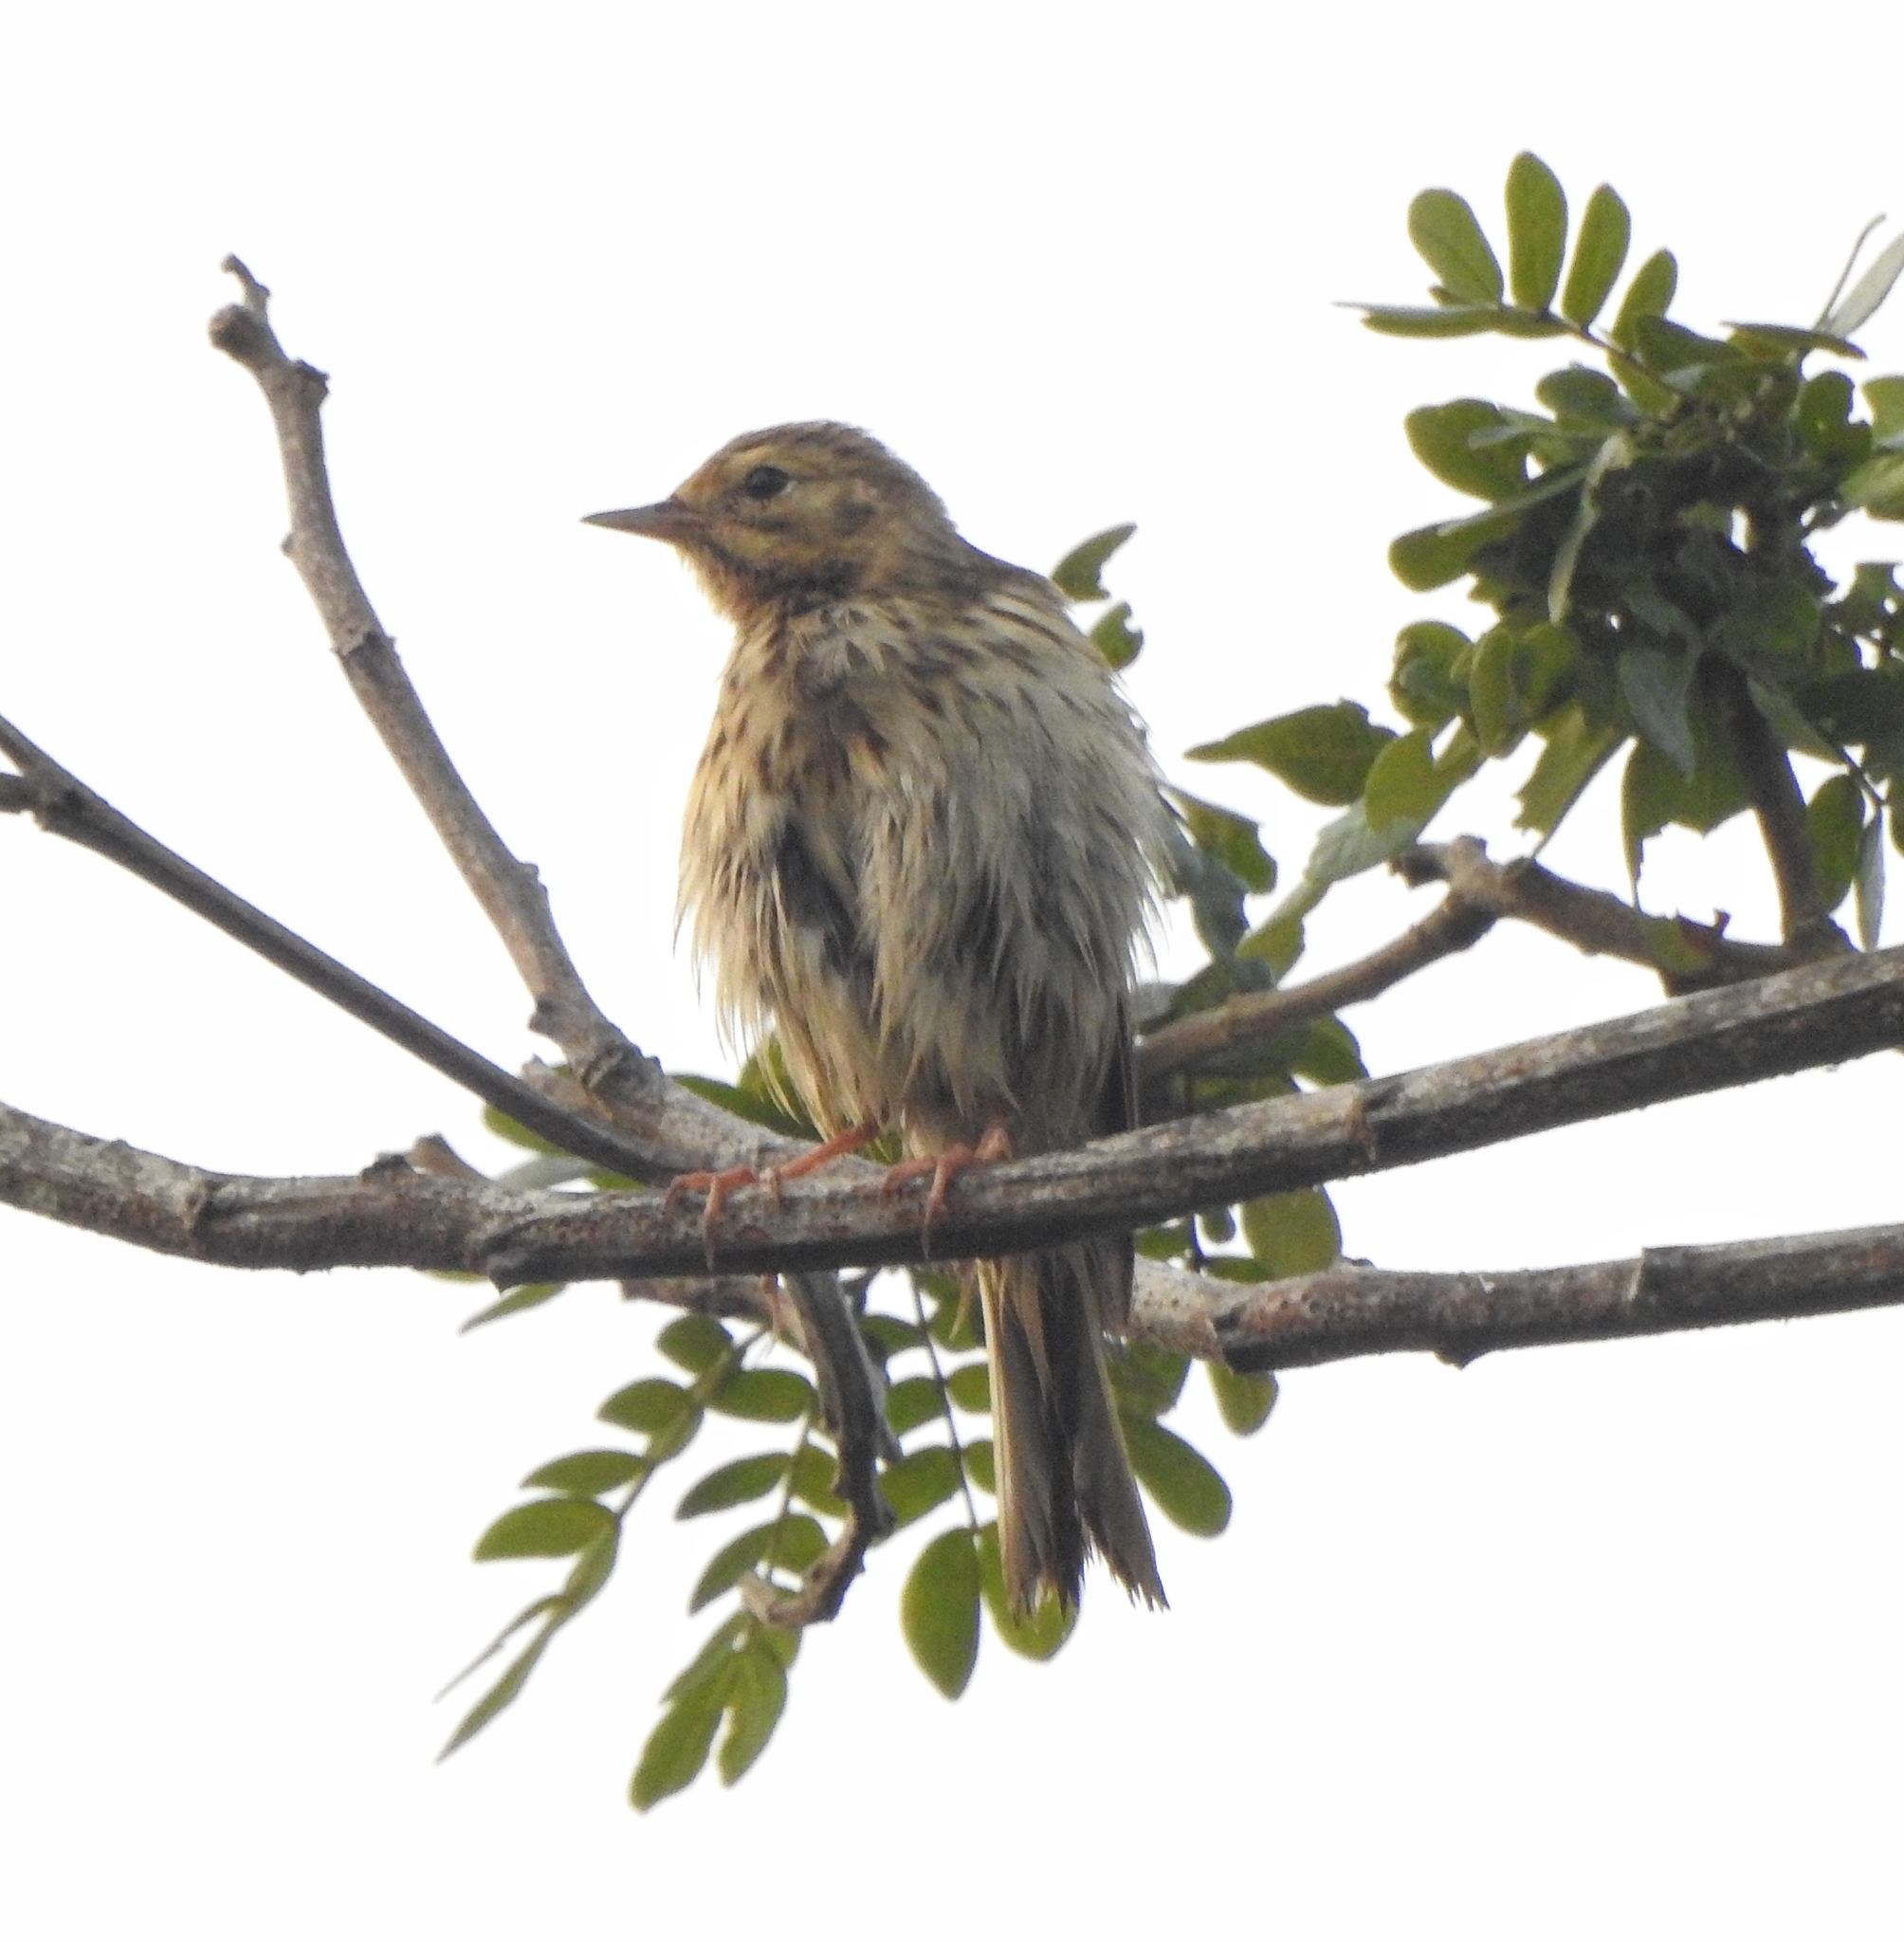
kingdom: Animalia
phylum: Chordata
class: Aves
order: Passeriformes
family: Motacillidae
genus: Anthus
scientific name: Anthus trivialis
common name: Tree pipit
